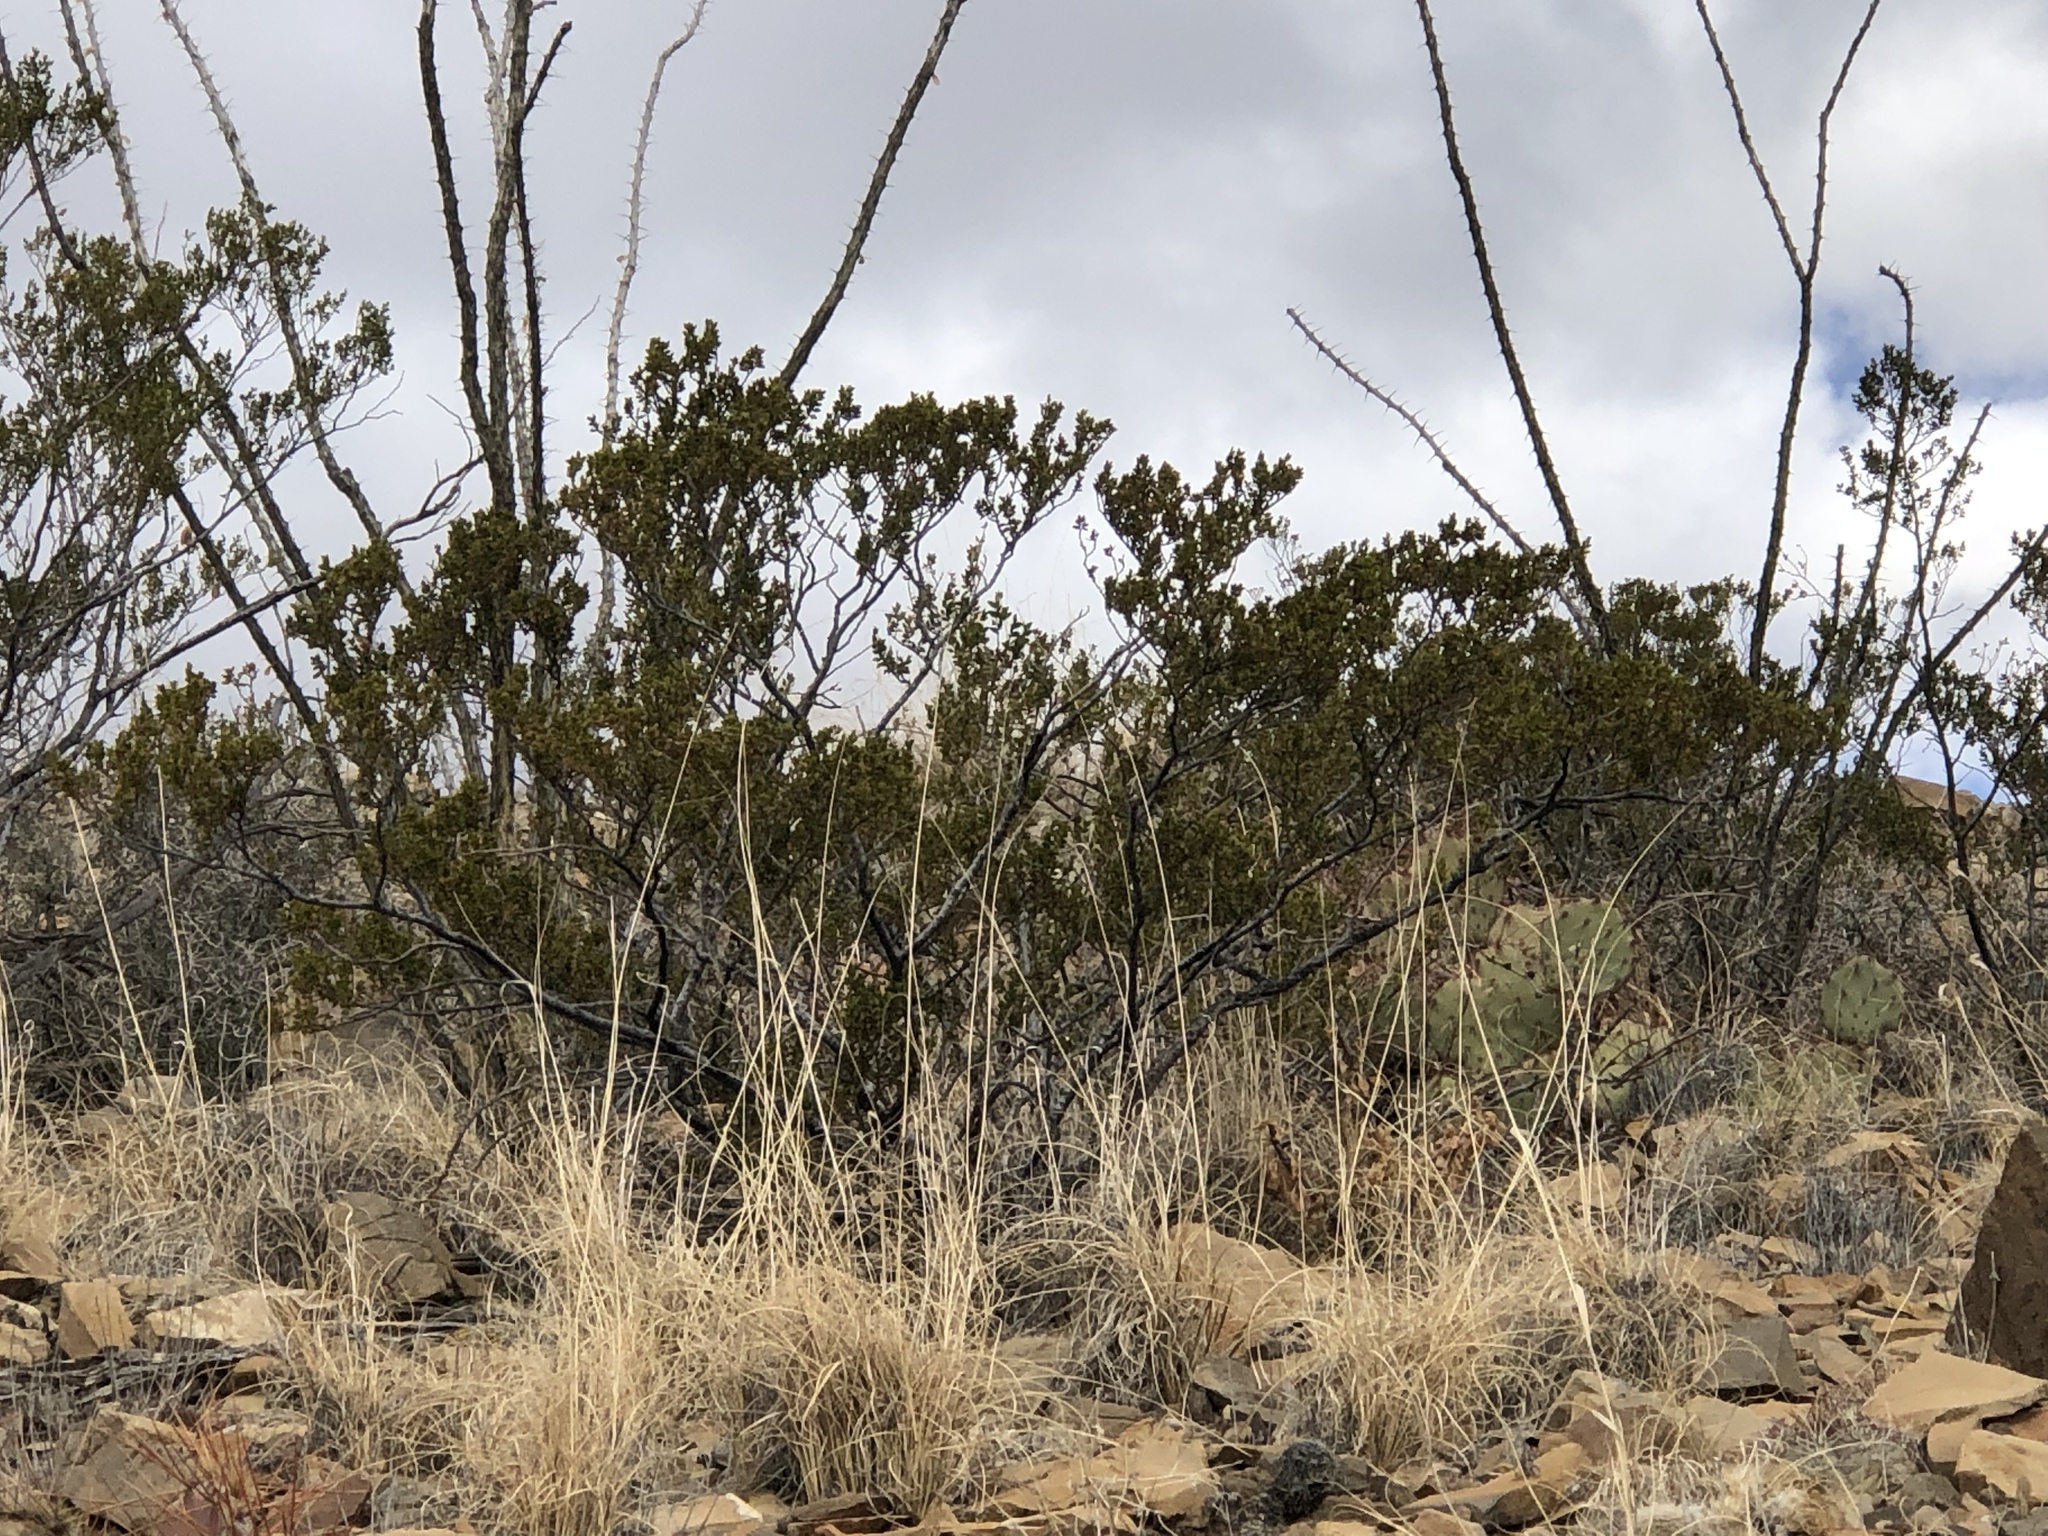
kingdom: Plantae
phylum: Tracheophyta
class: Magnoliopsida
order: Zygophyllales
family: Zygophyllaceae
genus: Larrea
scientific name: Larrea tridentata
